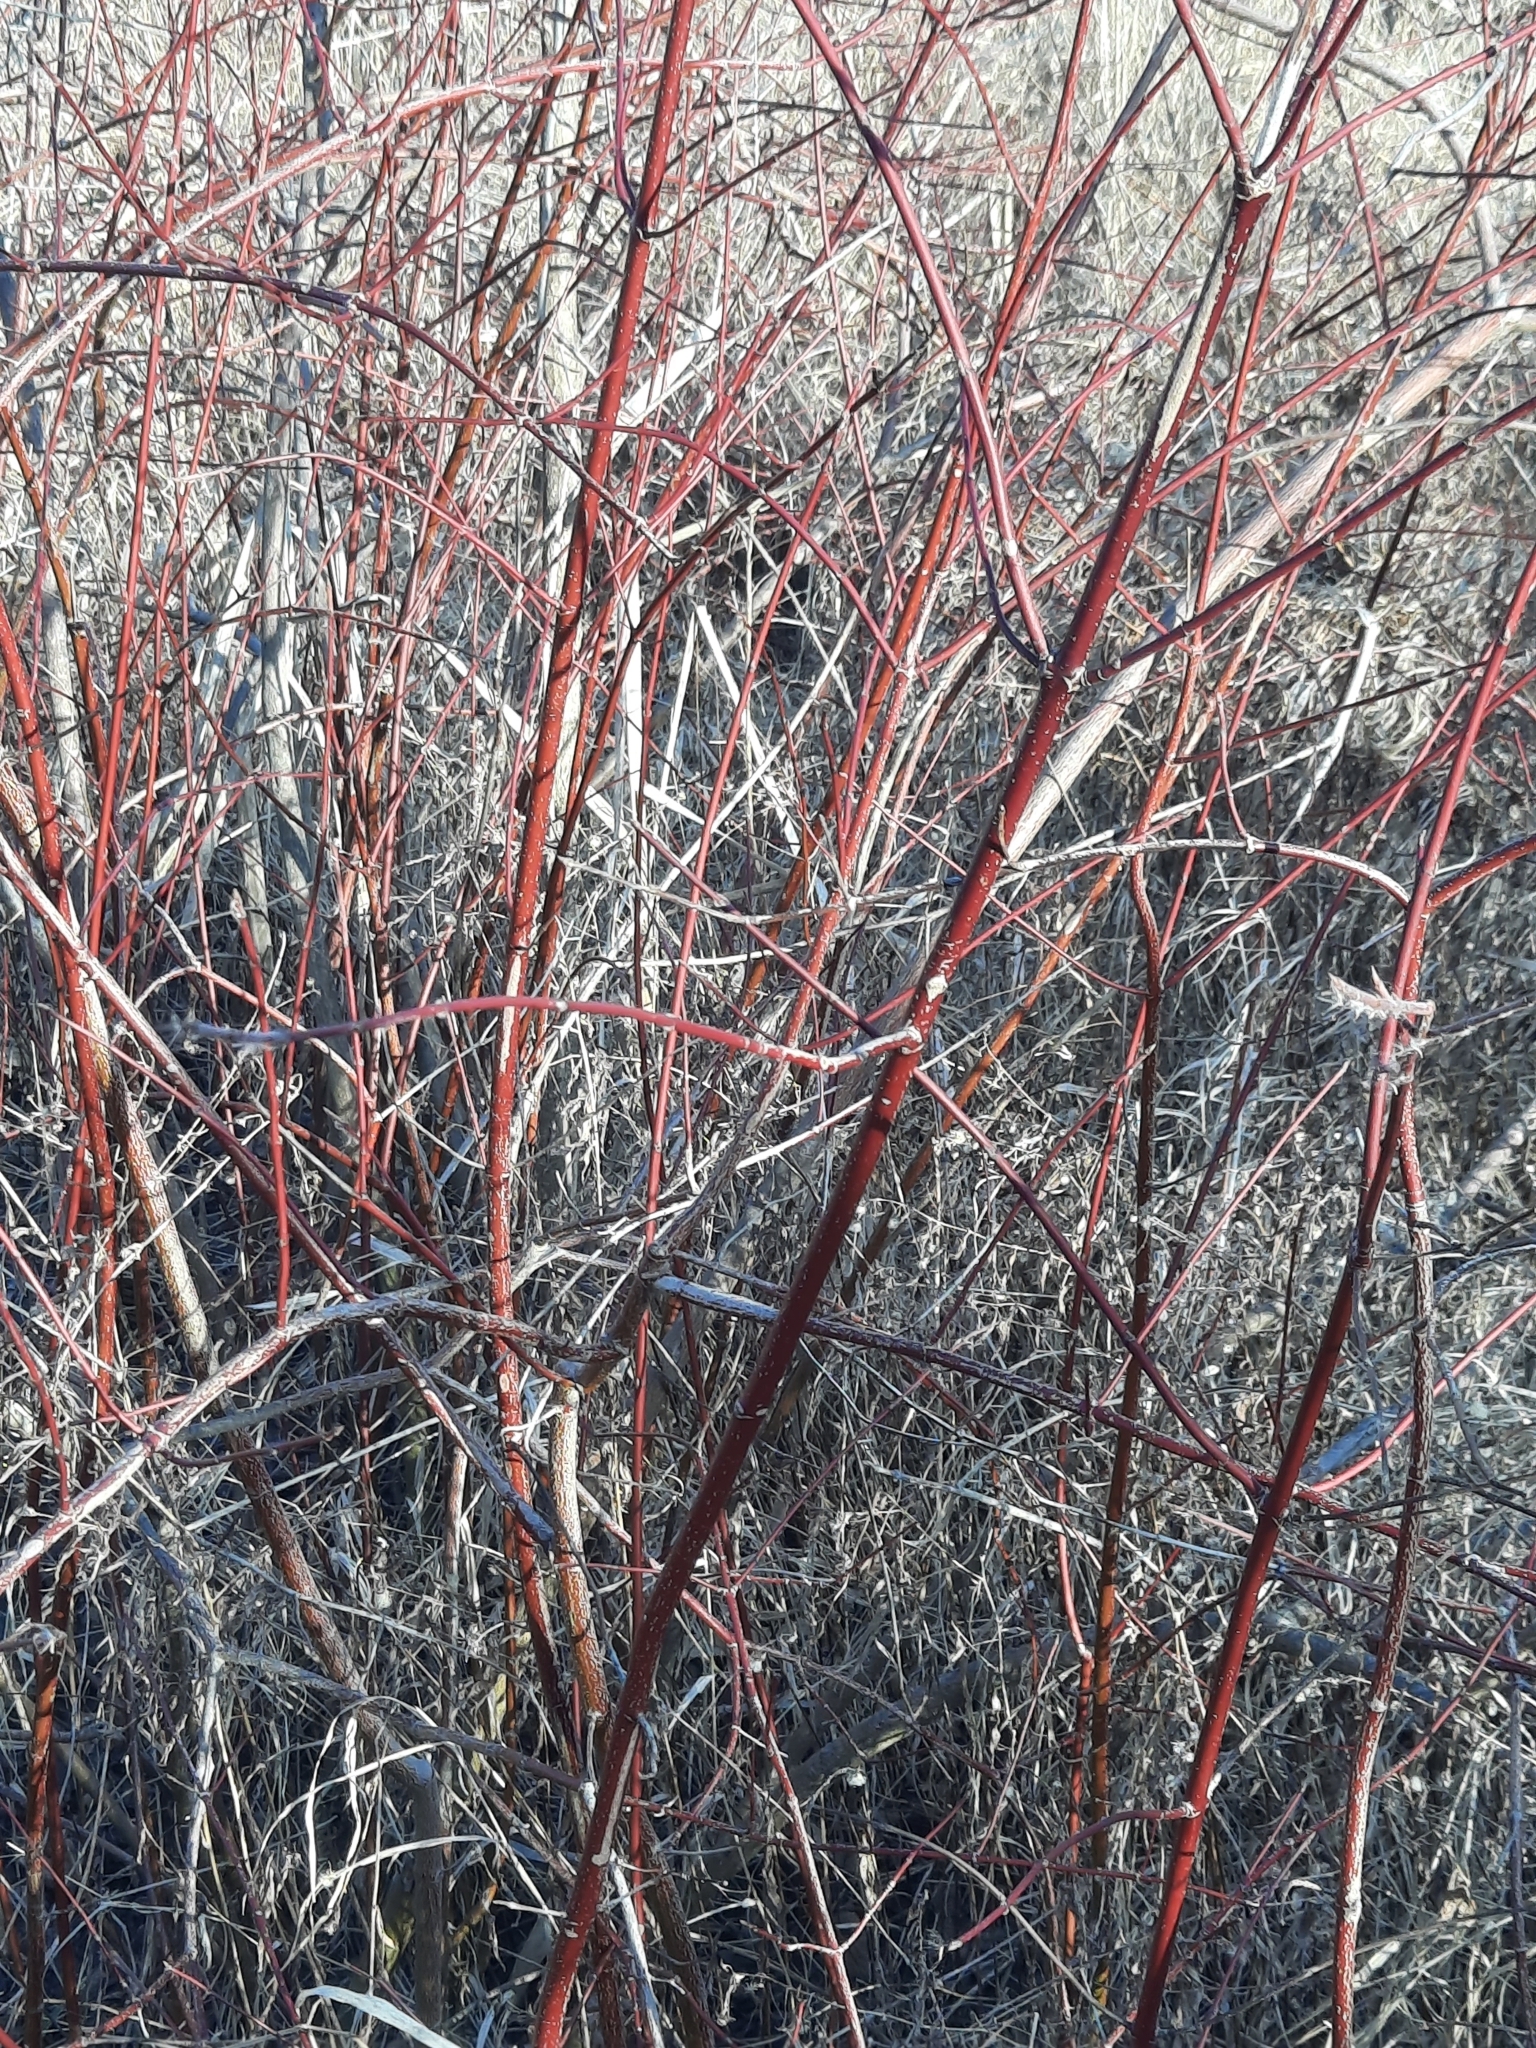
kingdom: Plantae
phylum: Tracheophyta
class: Magnoliopsida
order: Cornales
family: Cornaceae
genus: Cornus
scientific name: Cornus amomum
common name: Silky dogwood
